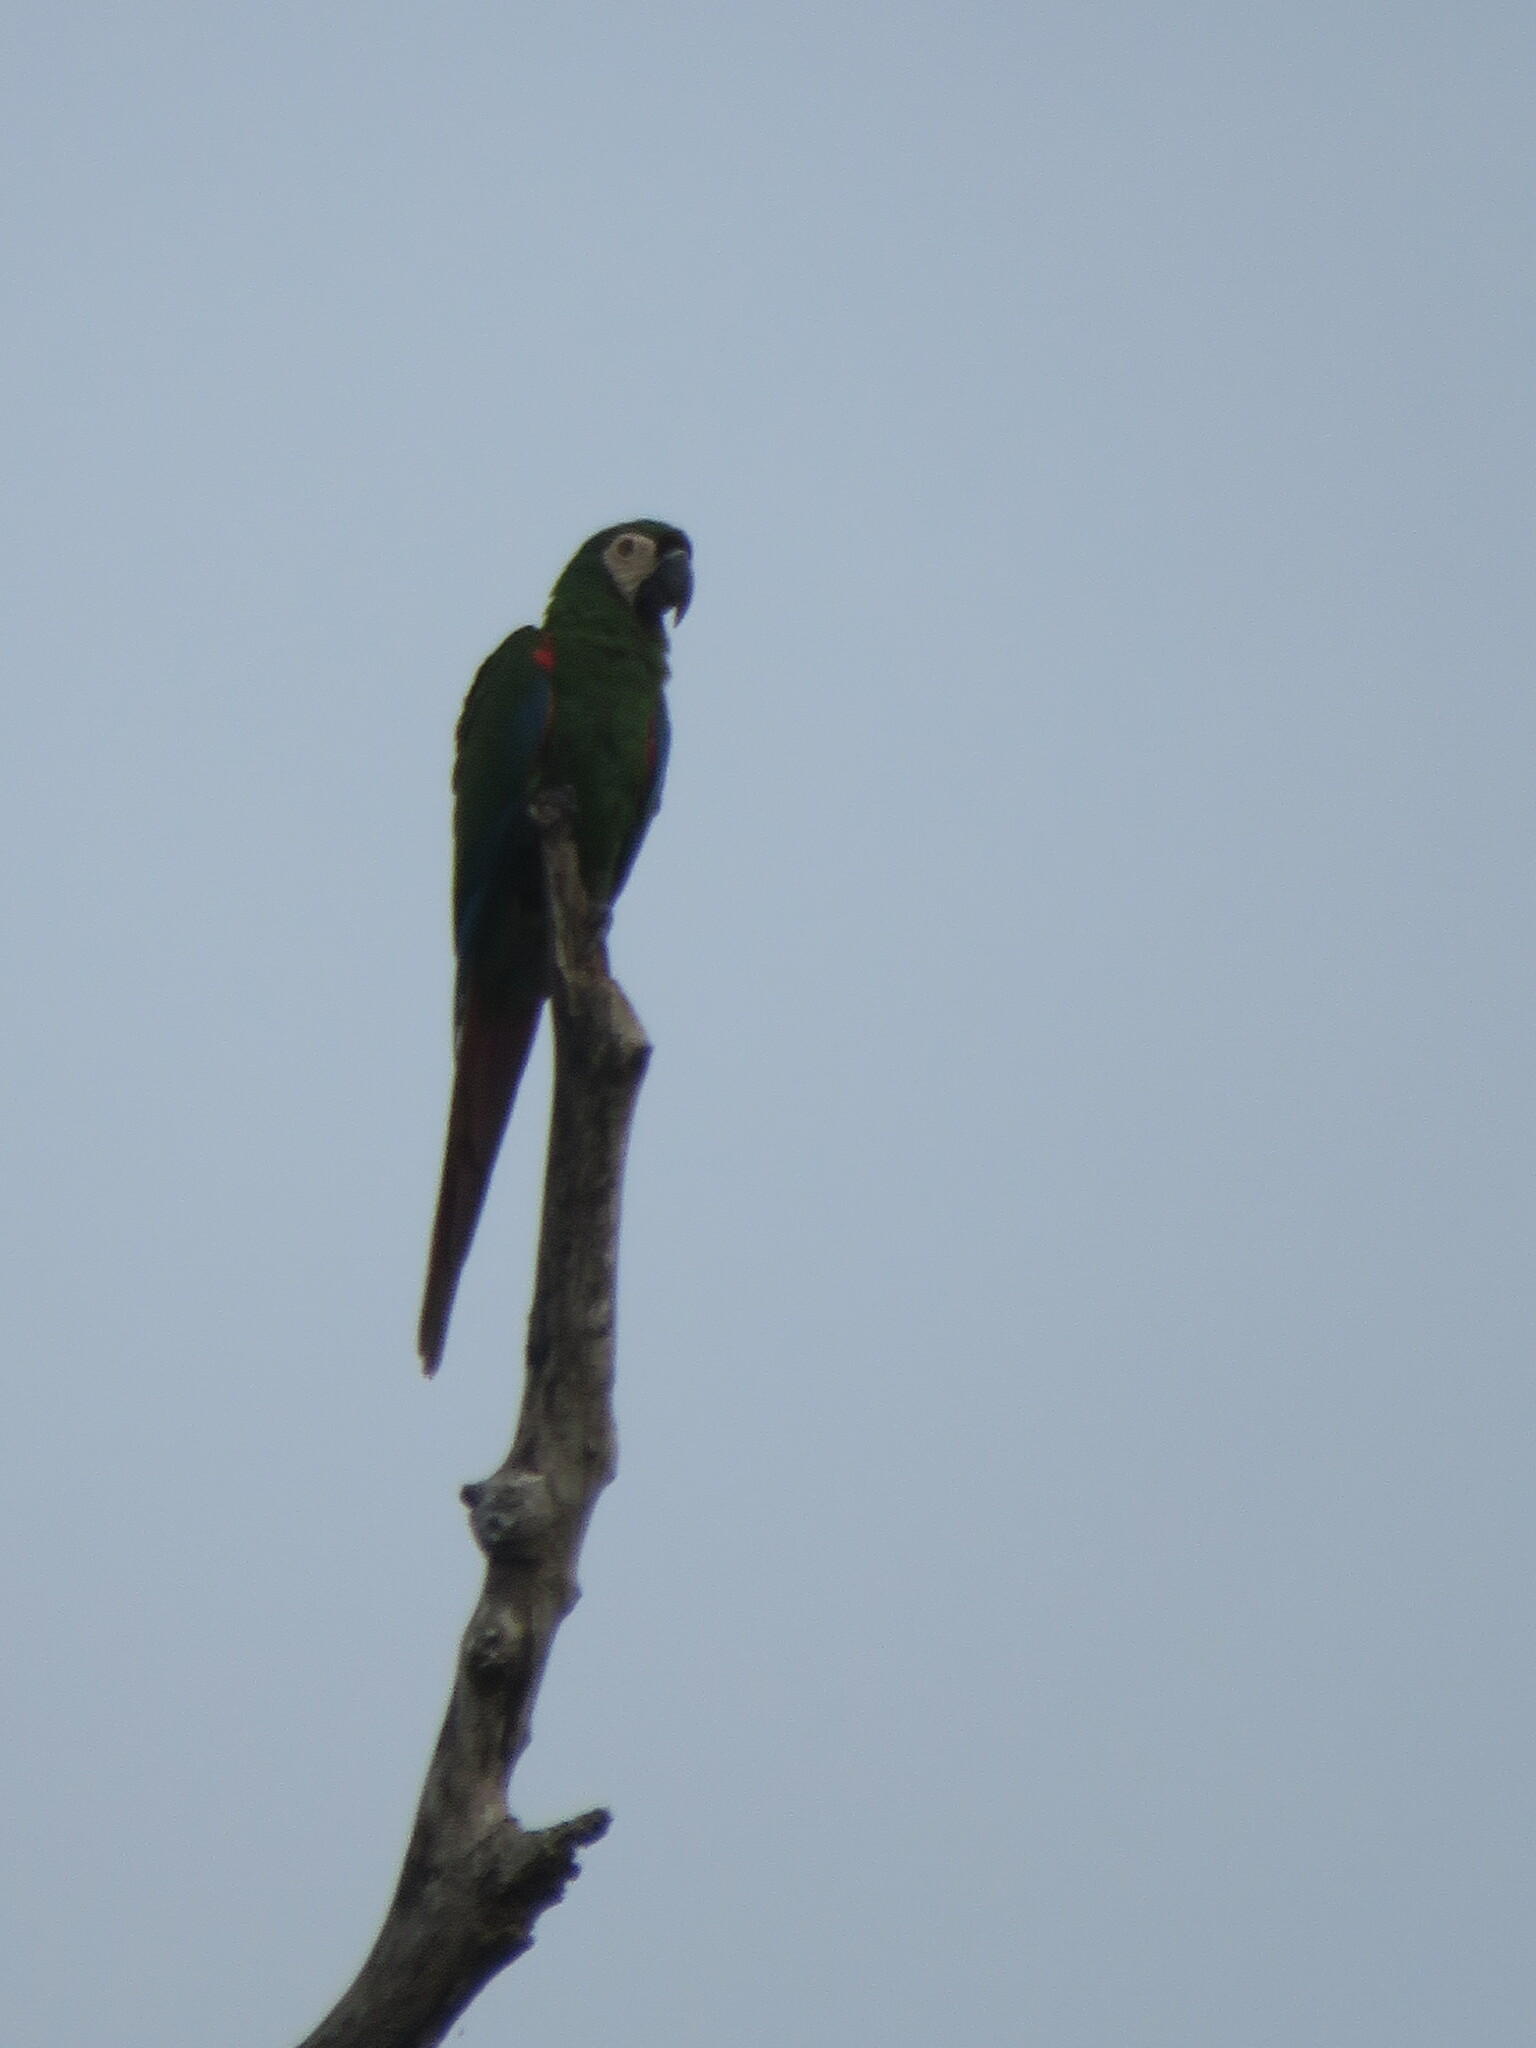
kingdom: Animalia
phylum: Chordata
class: Aves
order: Psittaciformes
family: Psittacidae
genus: Ara
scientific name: Ara severus
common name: Chestnut-fronted macaw
